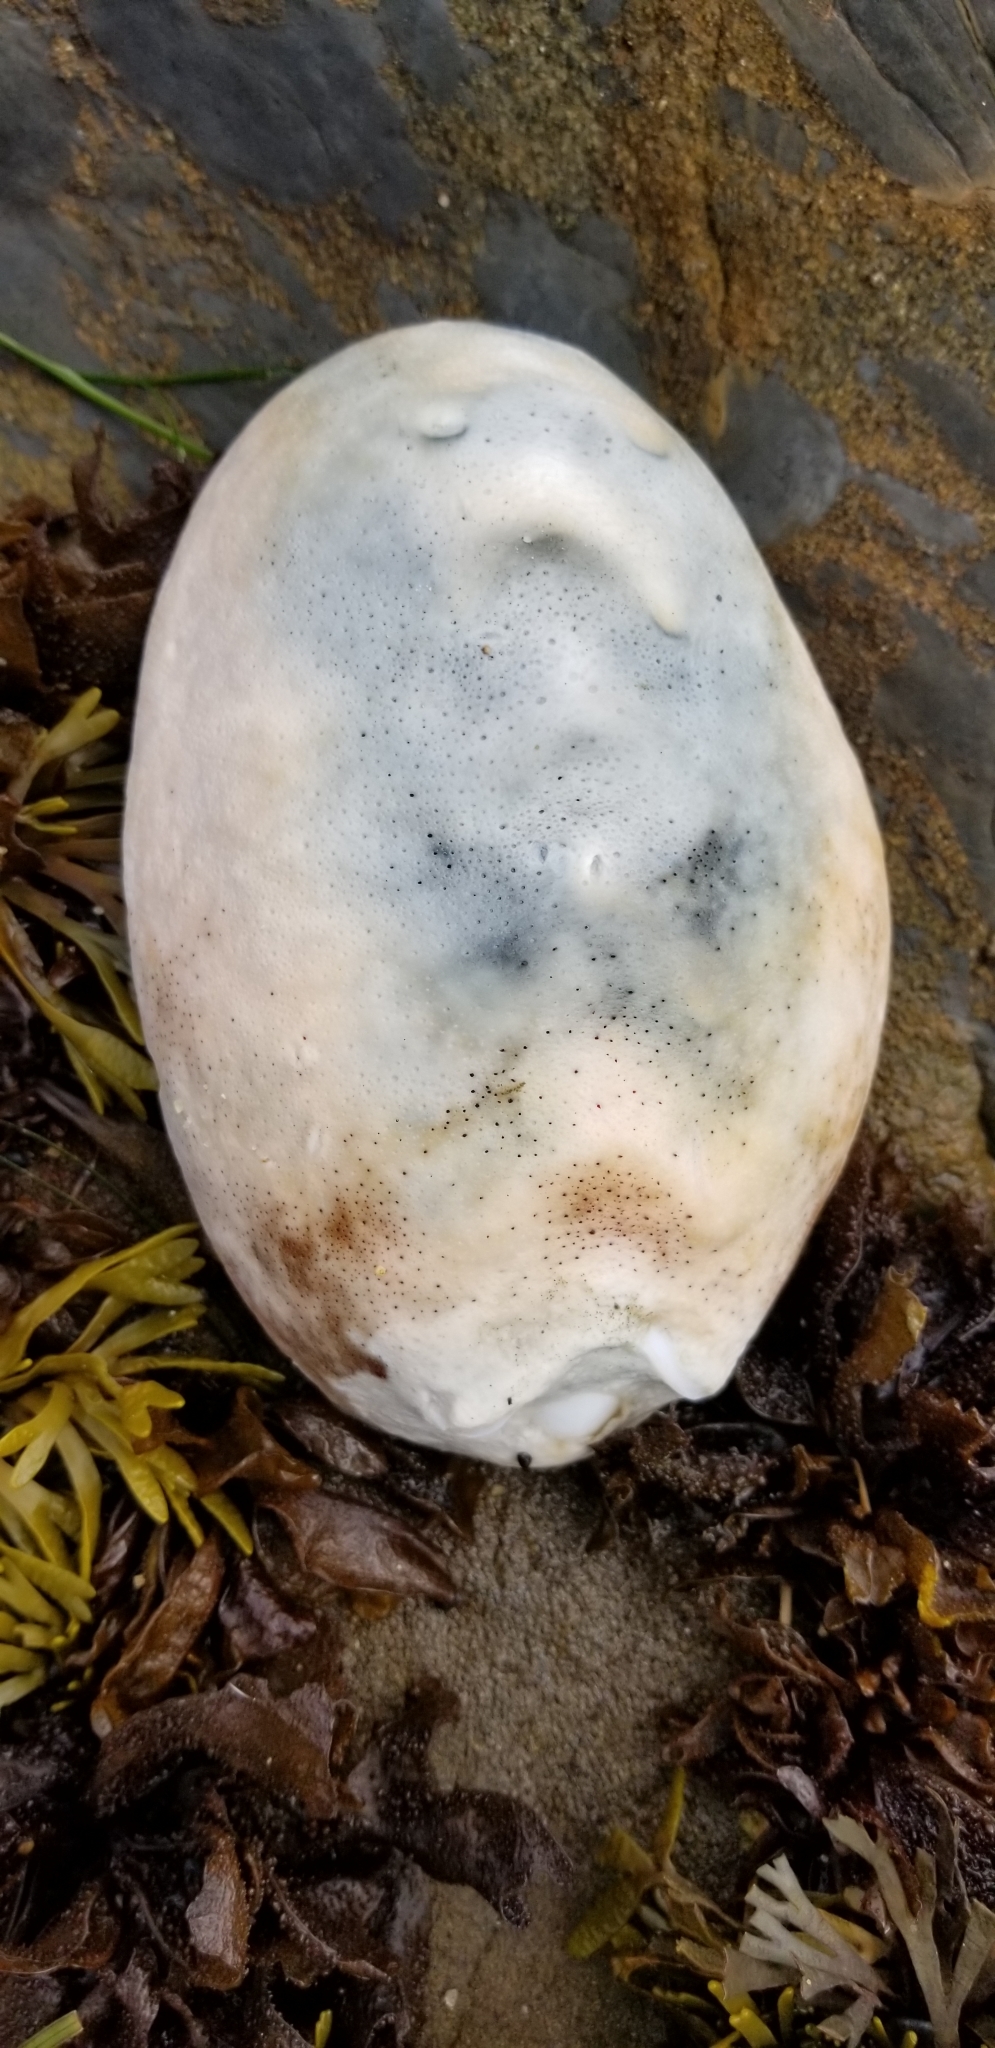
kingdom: Animalia
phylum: Mollusca
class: Polyplacophora
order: Chitonida
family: Acanthochitonidae
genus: Cryptochiton
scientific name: Cryptochiton stelleri
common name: Giant pacific chiton
